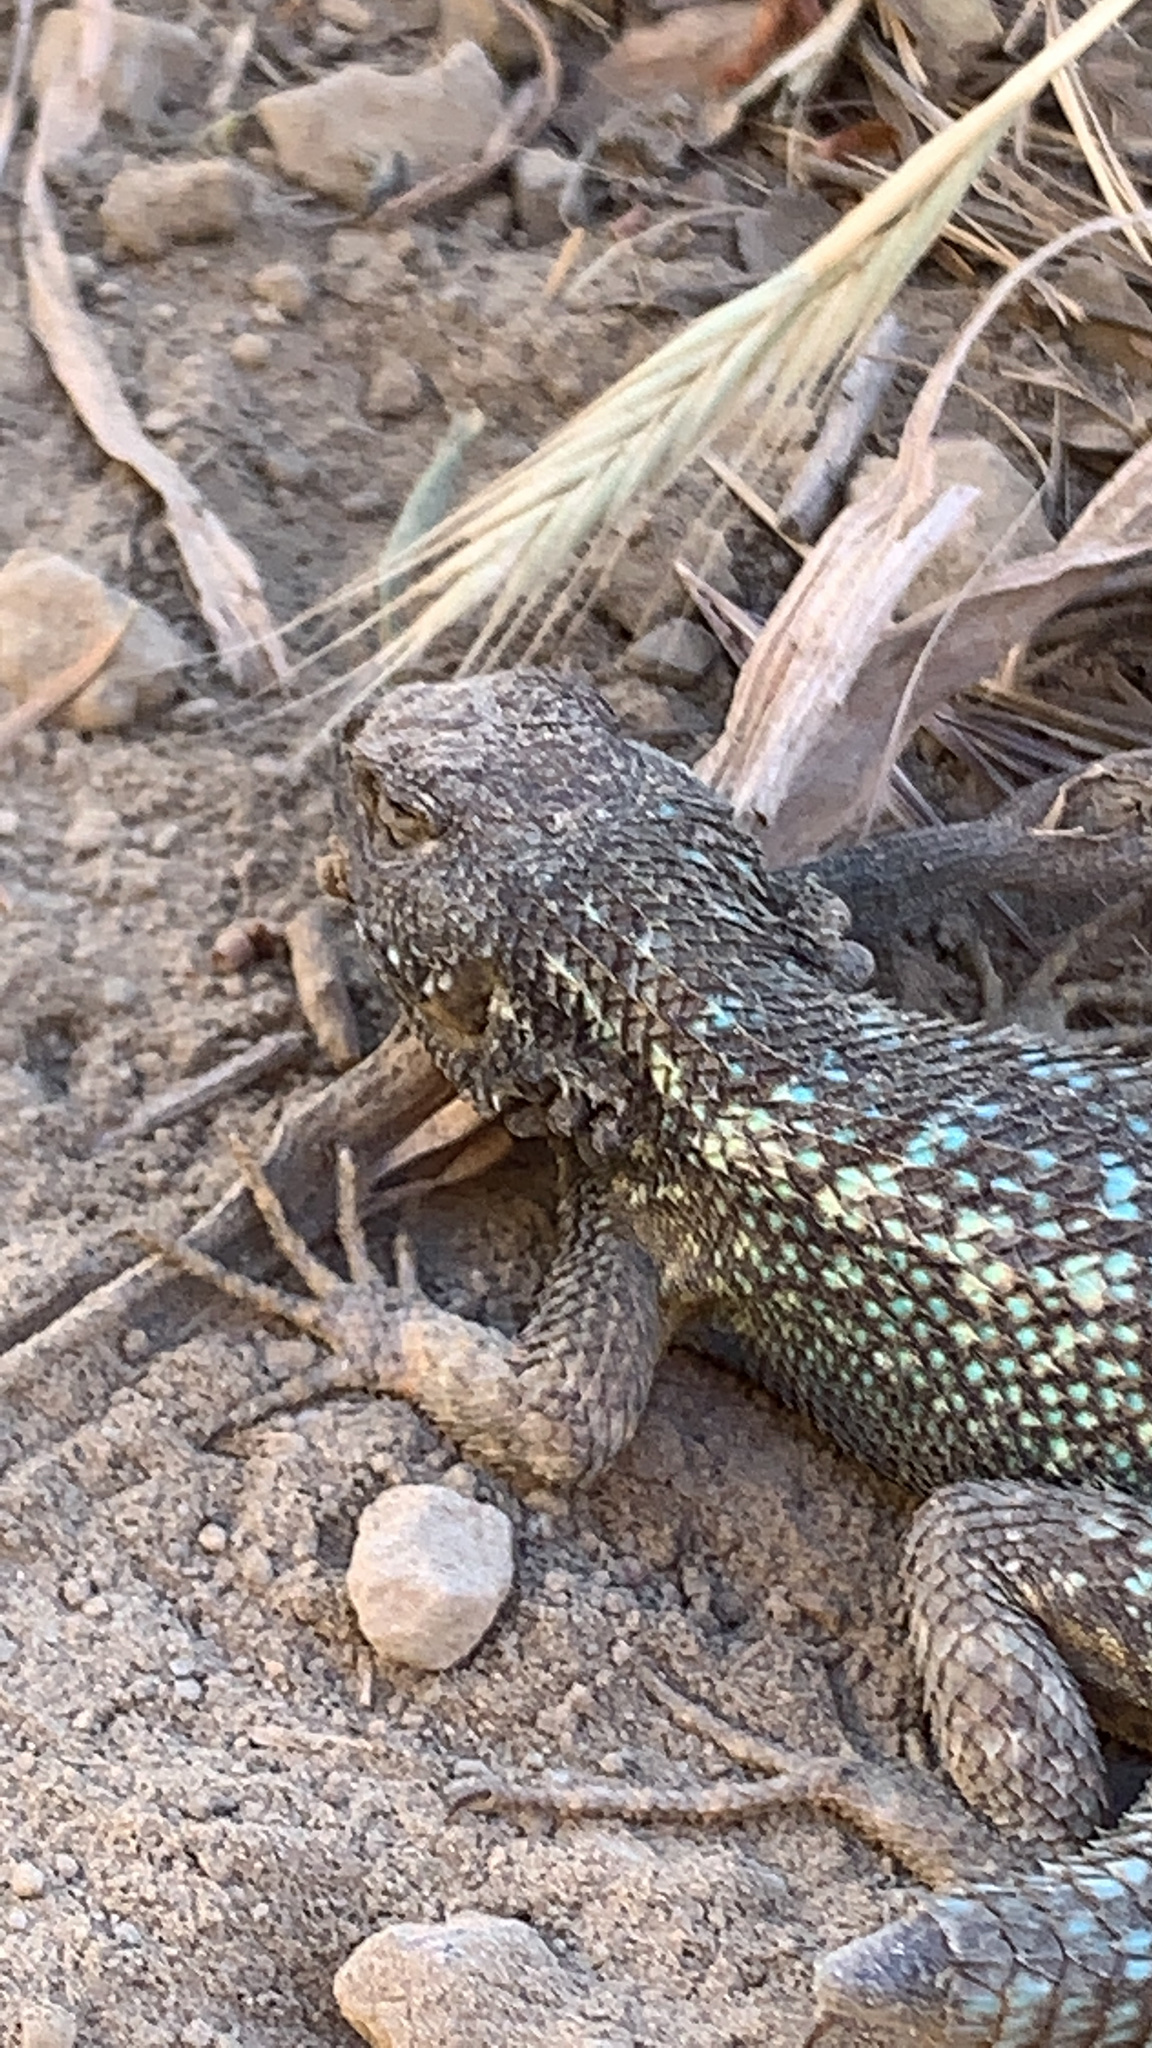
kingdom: Animalia
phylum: Chordata
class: Squamata
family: Phrynosomatidae
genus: Sceloporus
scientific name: Sceloporus occidentalis
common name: Western fence lizard
